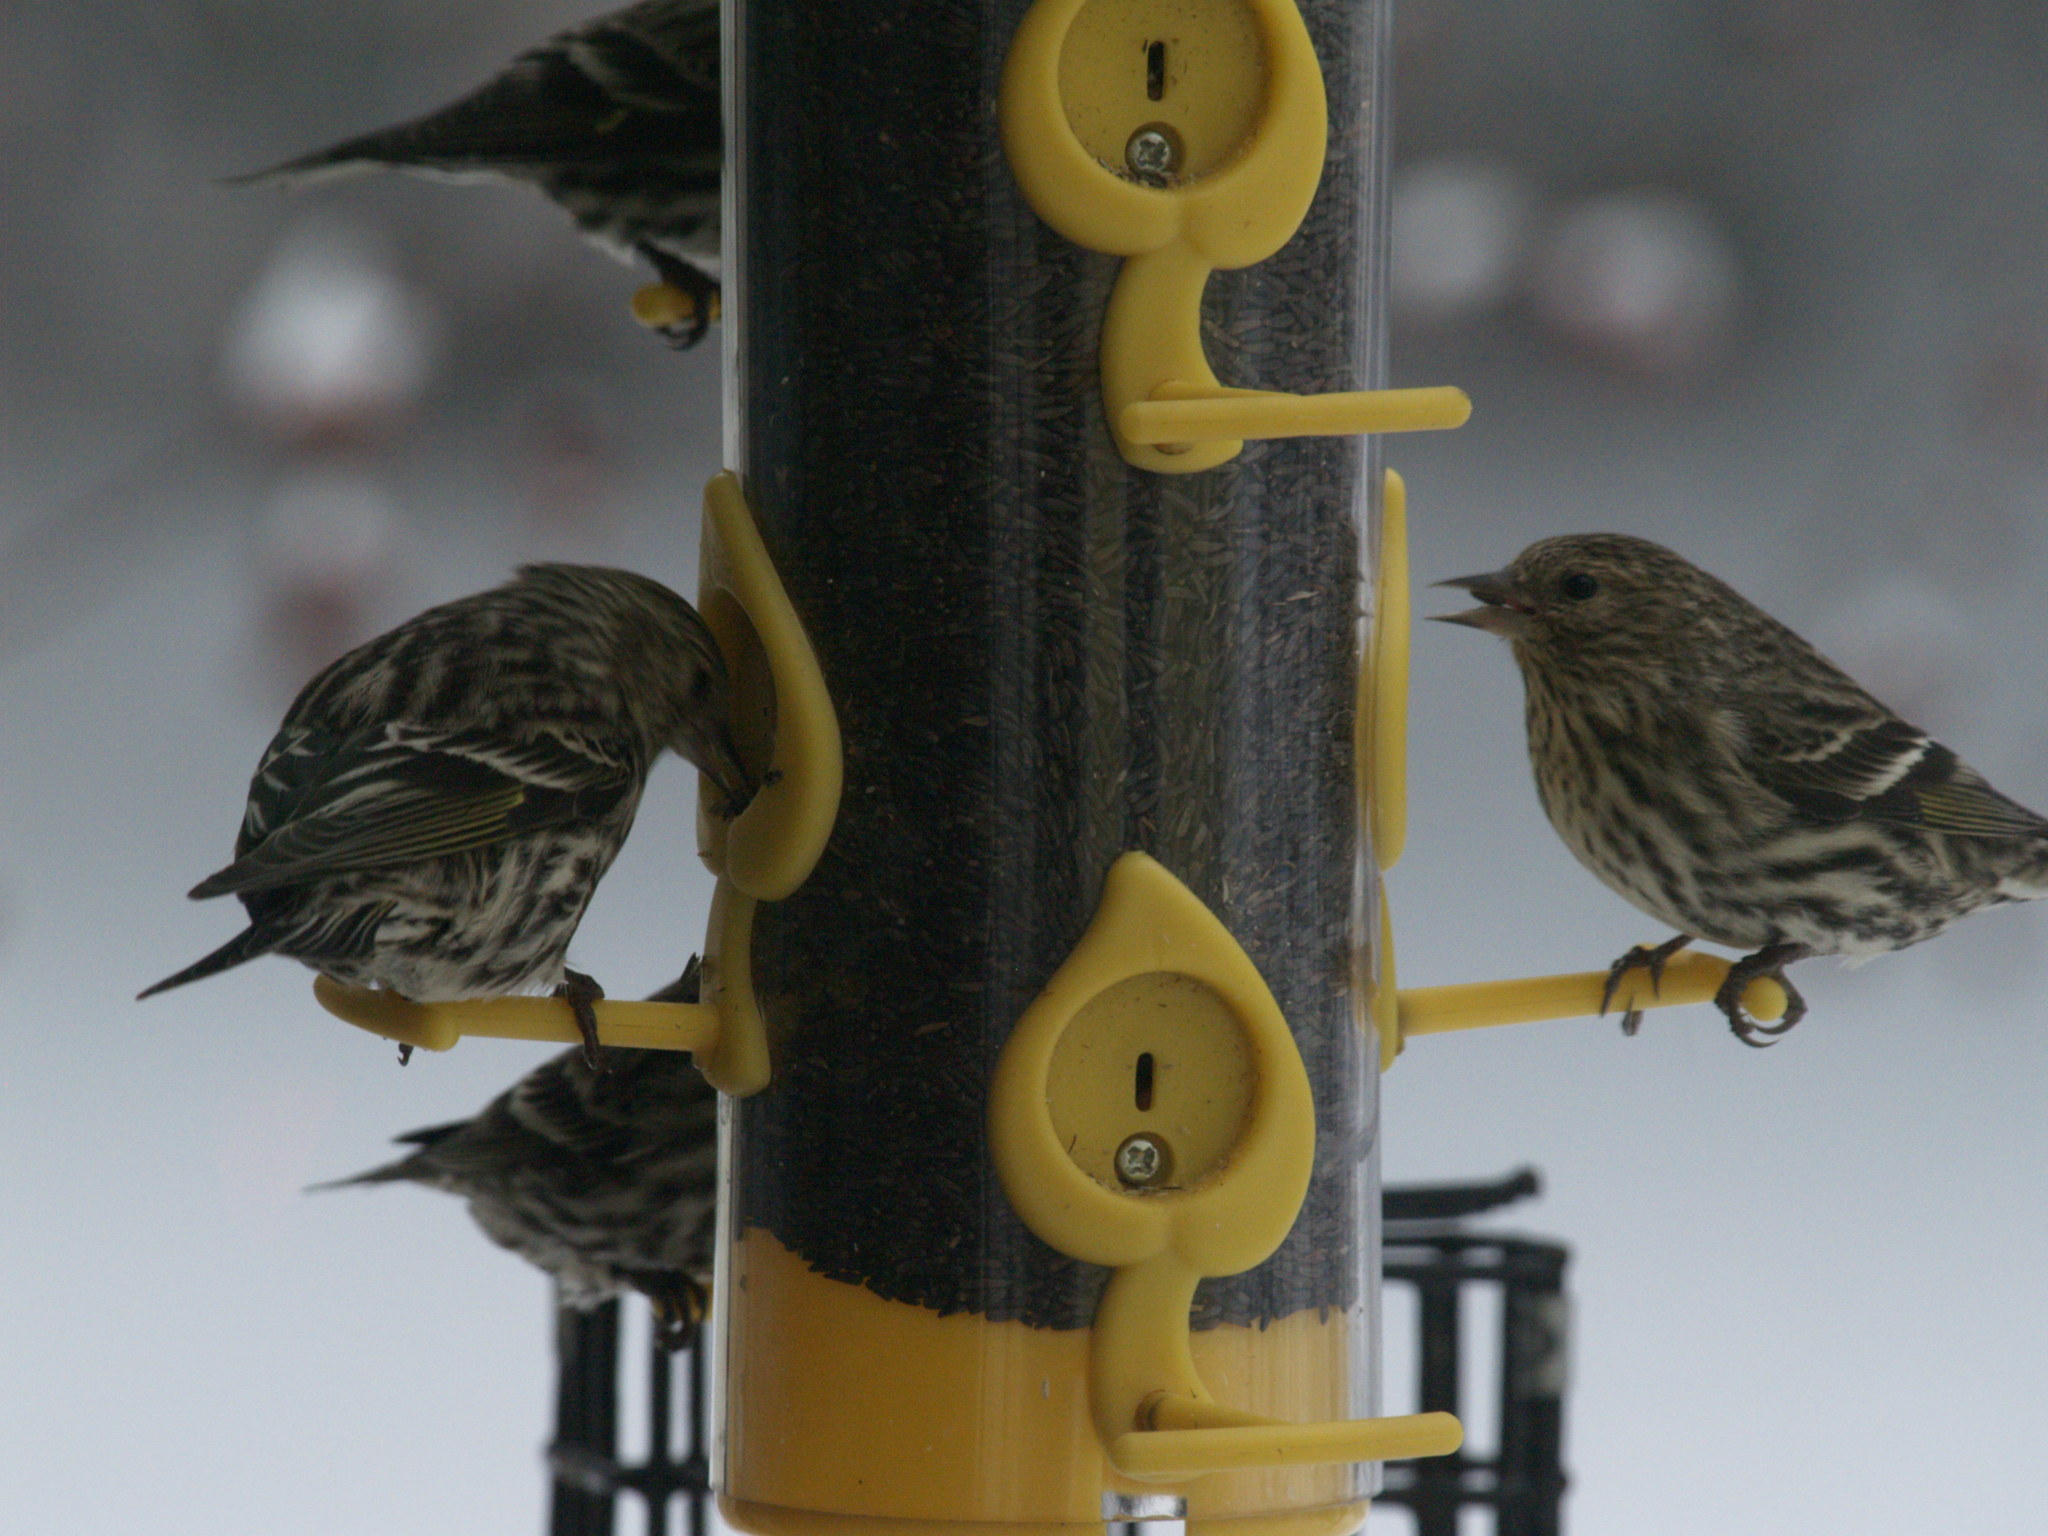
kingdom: Animalia
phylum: Chordata
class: Aves
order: Passeriformes
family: Fringillidae
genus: Spinus
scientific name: Spinus pinus
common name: Pine siskin
